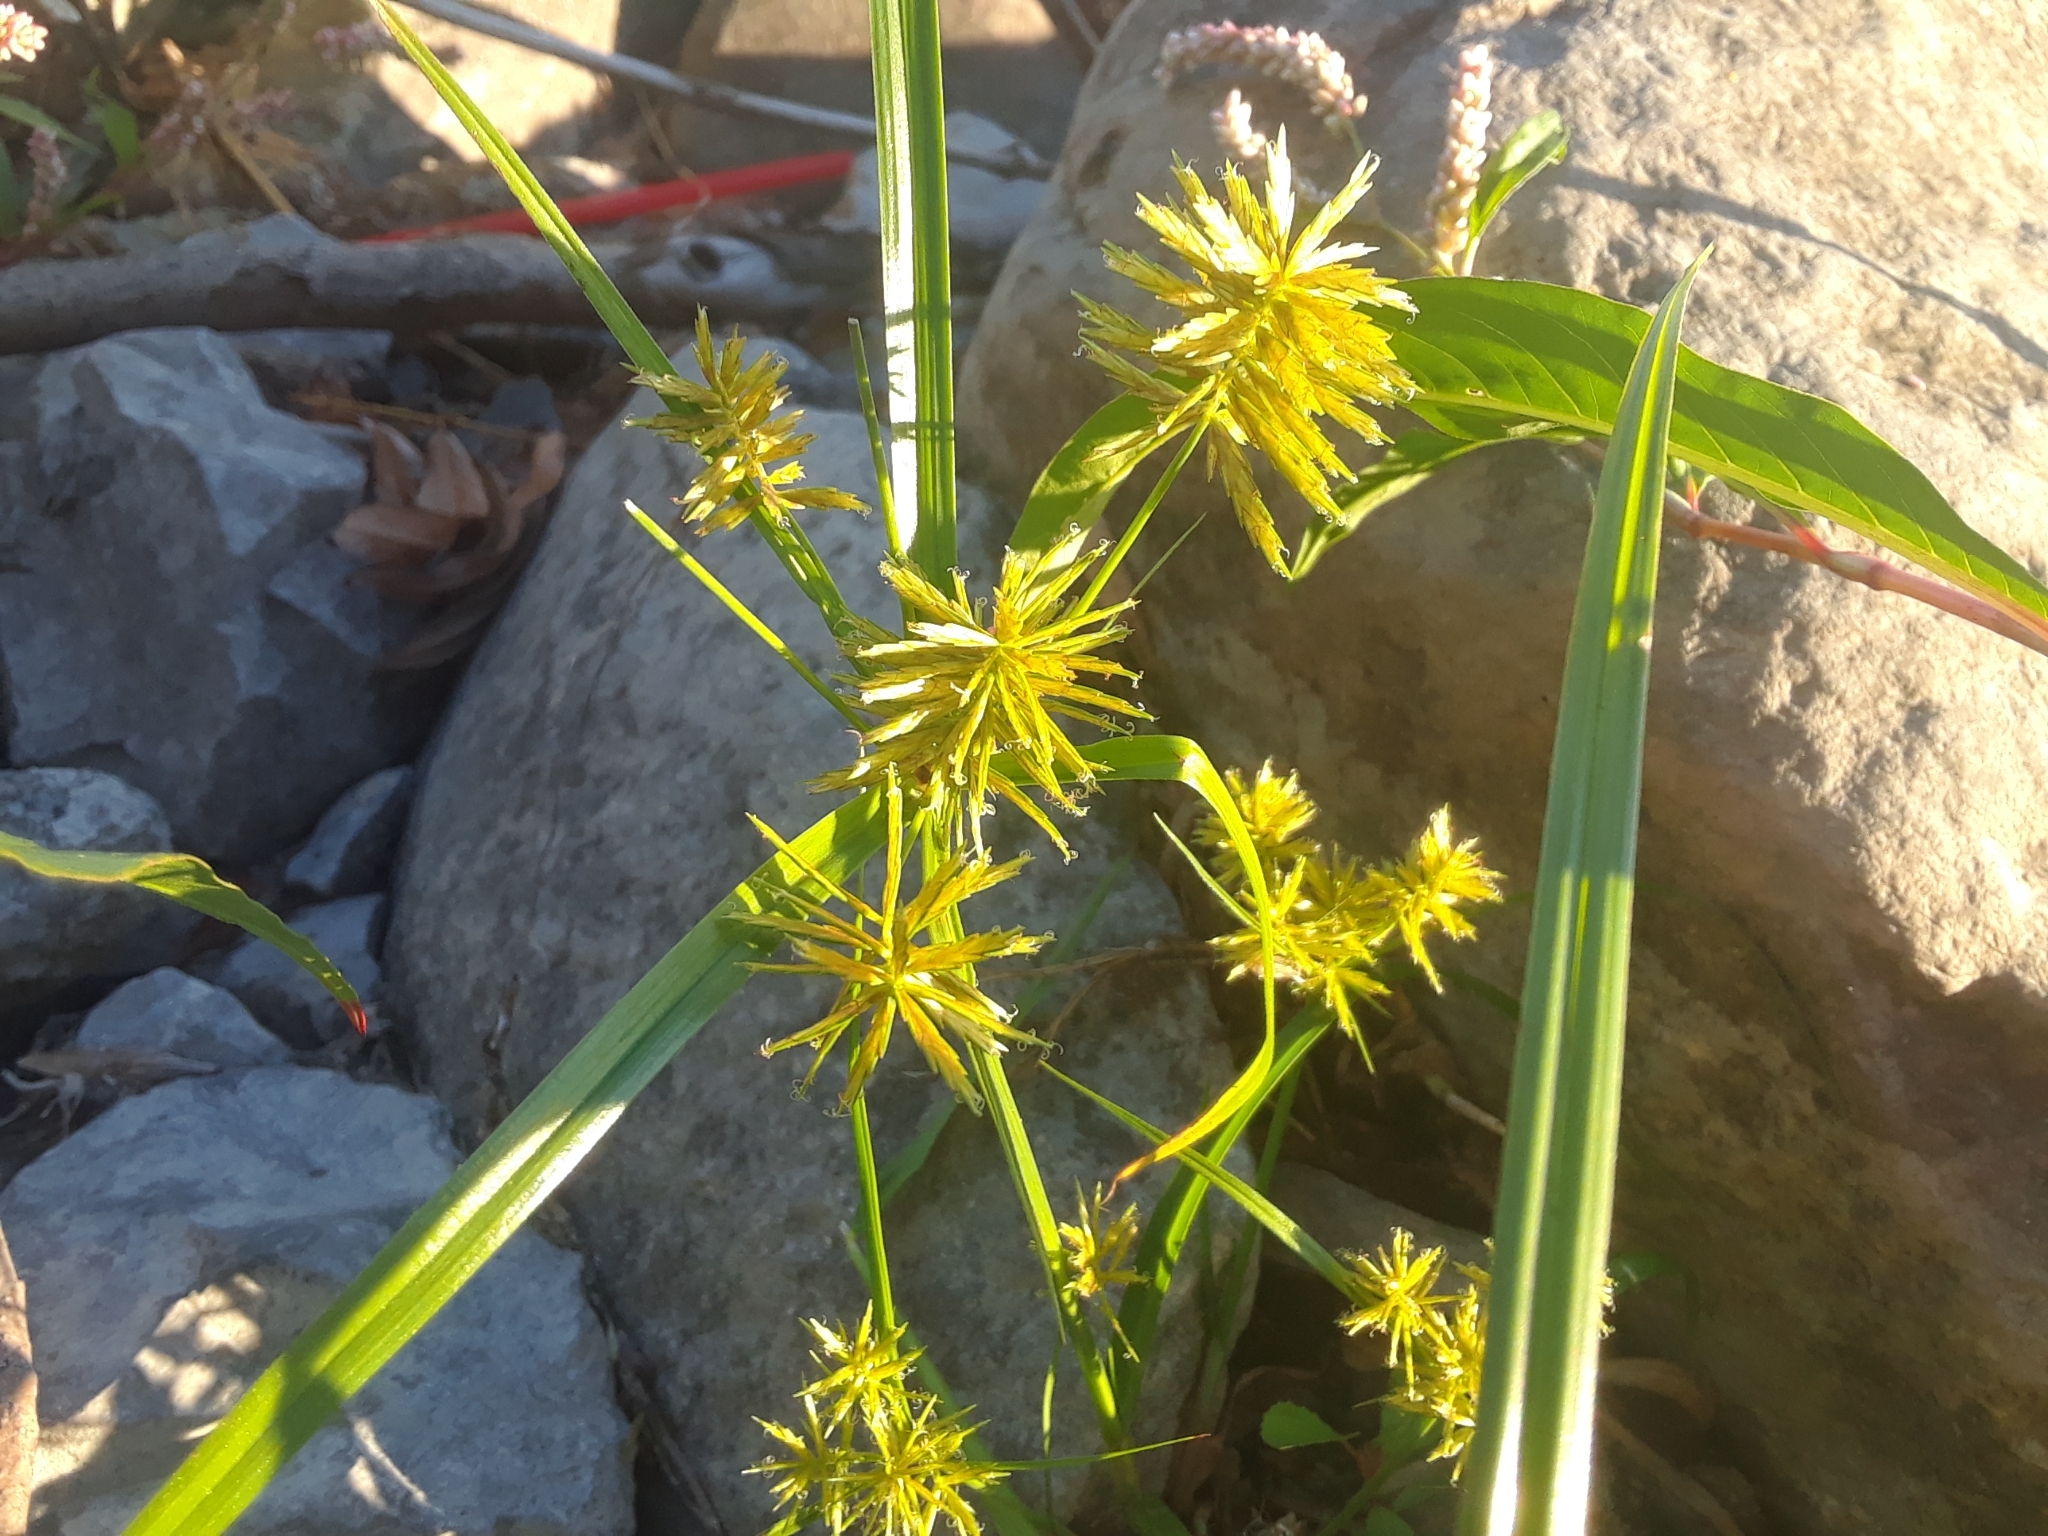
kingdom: Plantae
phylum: Tracheophyta
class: Liliopsida
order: Poales
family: Cyperaceae
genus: Cyperus
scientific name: Cyperus strigosus
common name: False nutsedge
